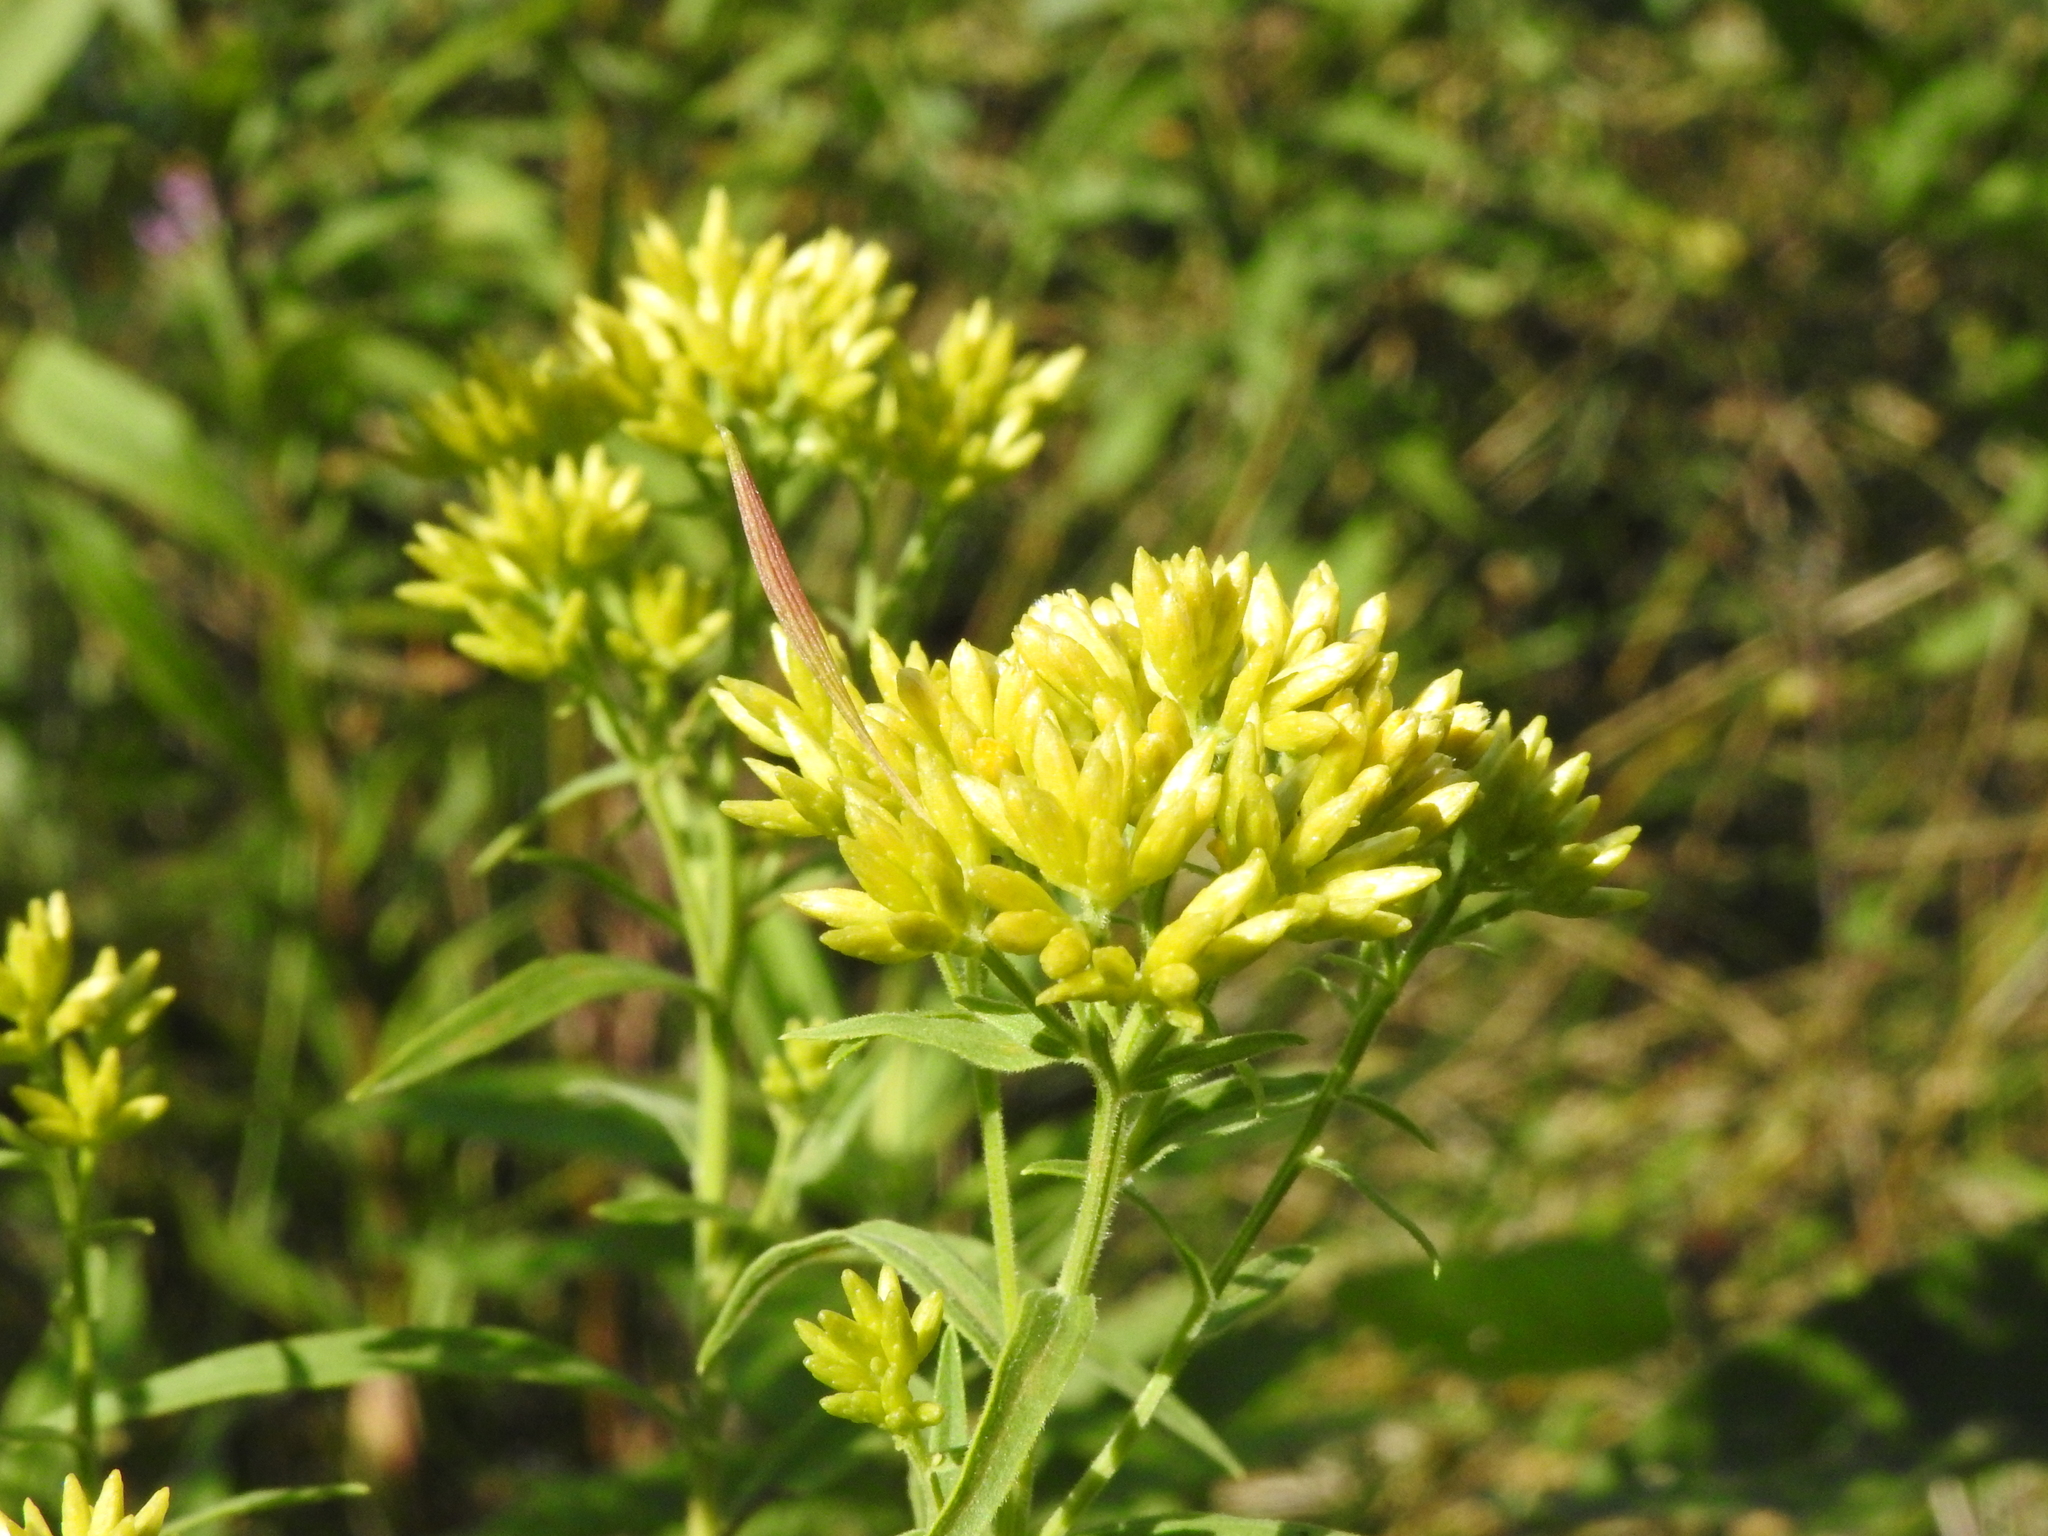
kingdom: Animalia
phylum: Arthropoda
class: Insecta
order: Diptera
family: Cecidomyiidae
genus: Rhopalomyia
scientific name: Rhopalomyia pedicellata
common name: Goldentop pedicellate gall midge
